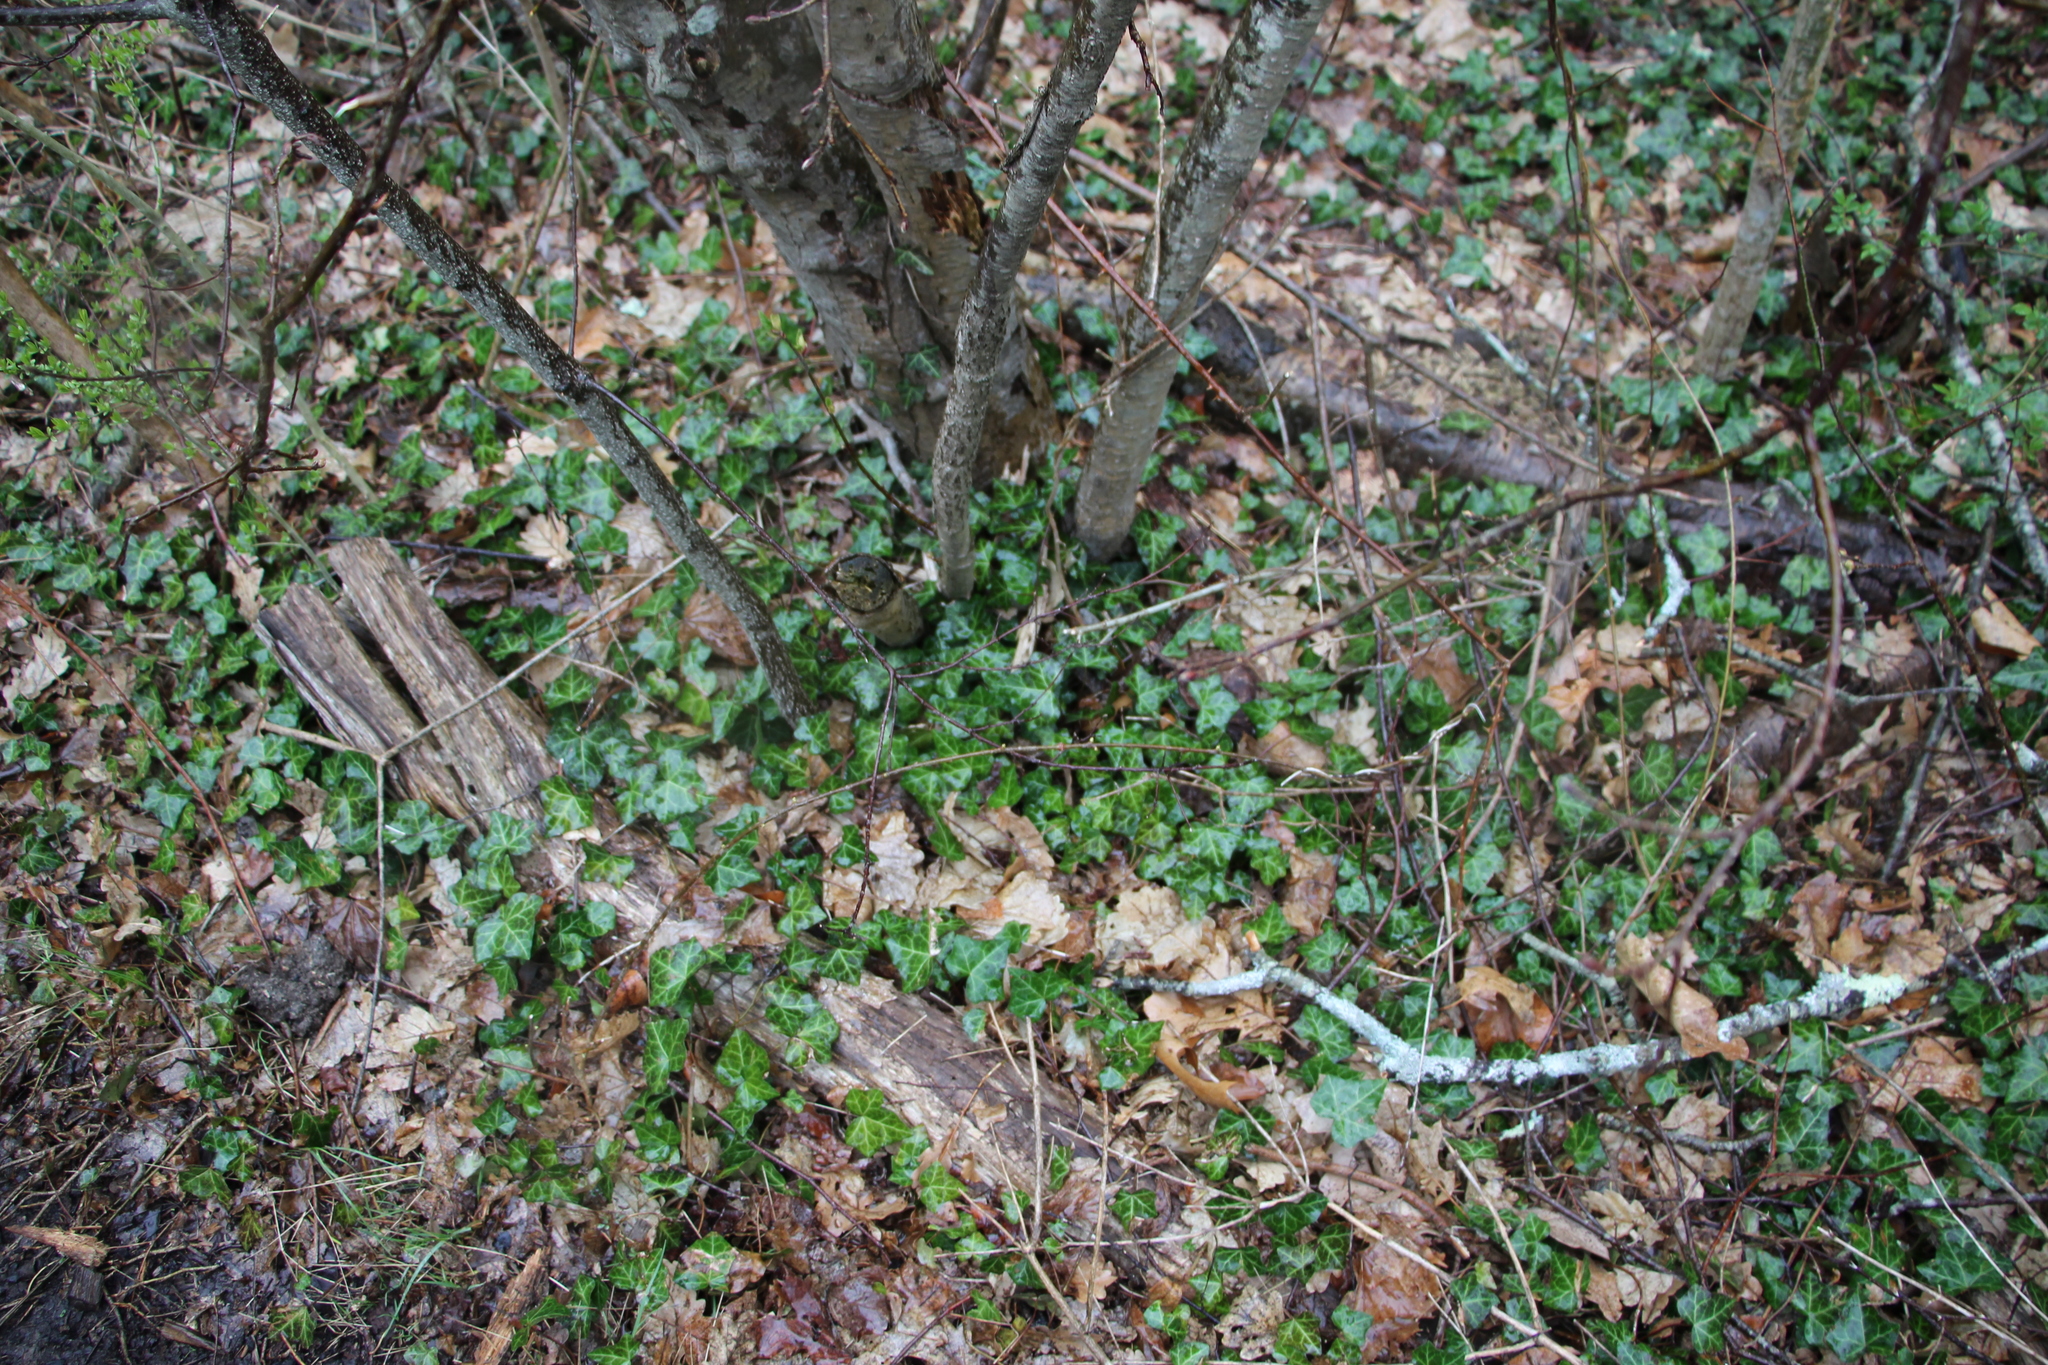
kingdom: Plantae
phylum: Tracheophyta
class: Magnoliopsida
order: Apiales
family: Araliaceae
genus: Hedera
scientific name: Hedera helix
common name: Ivy
